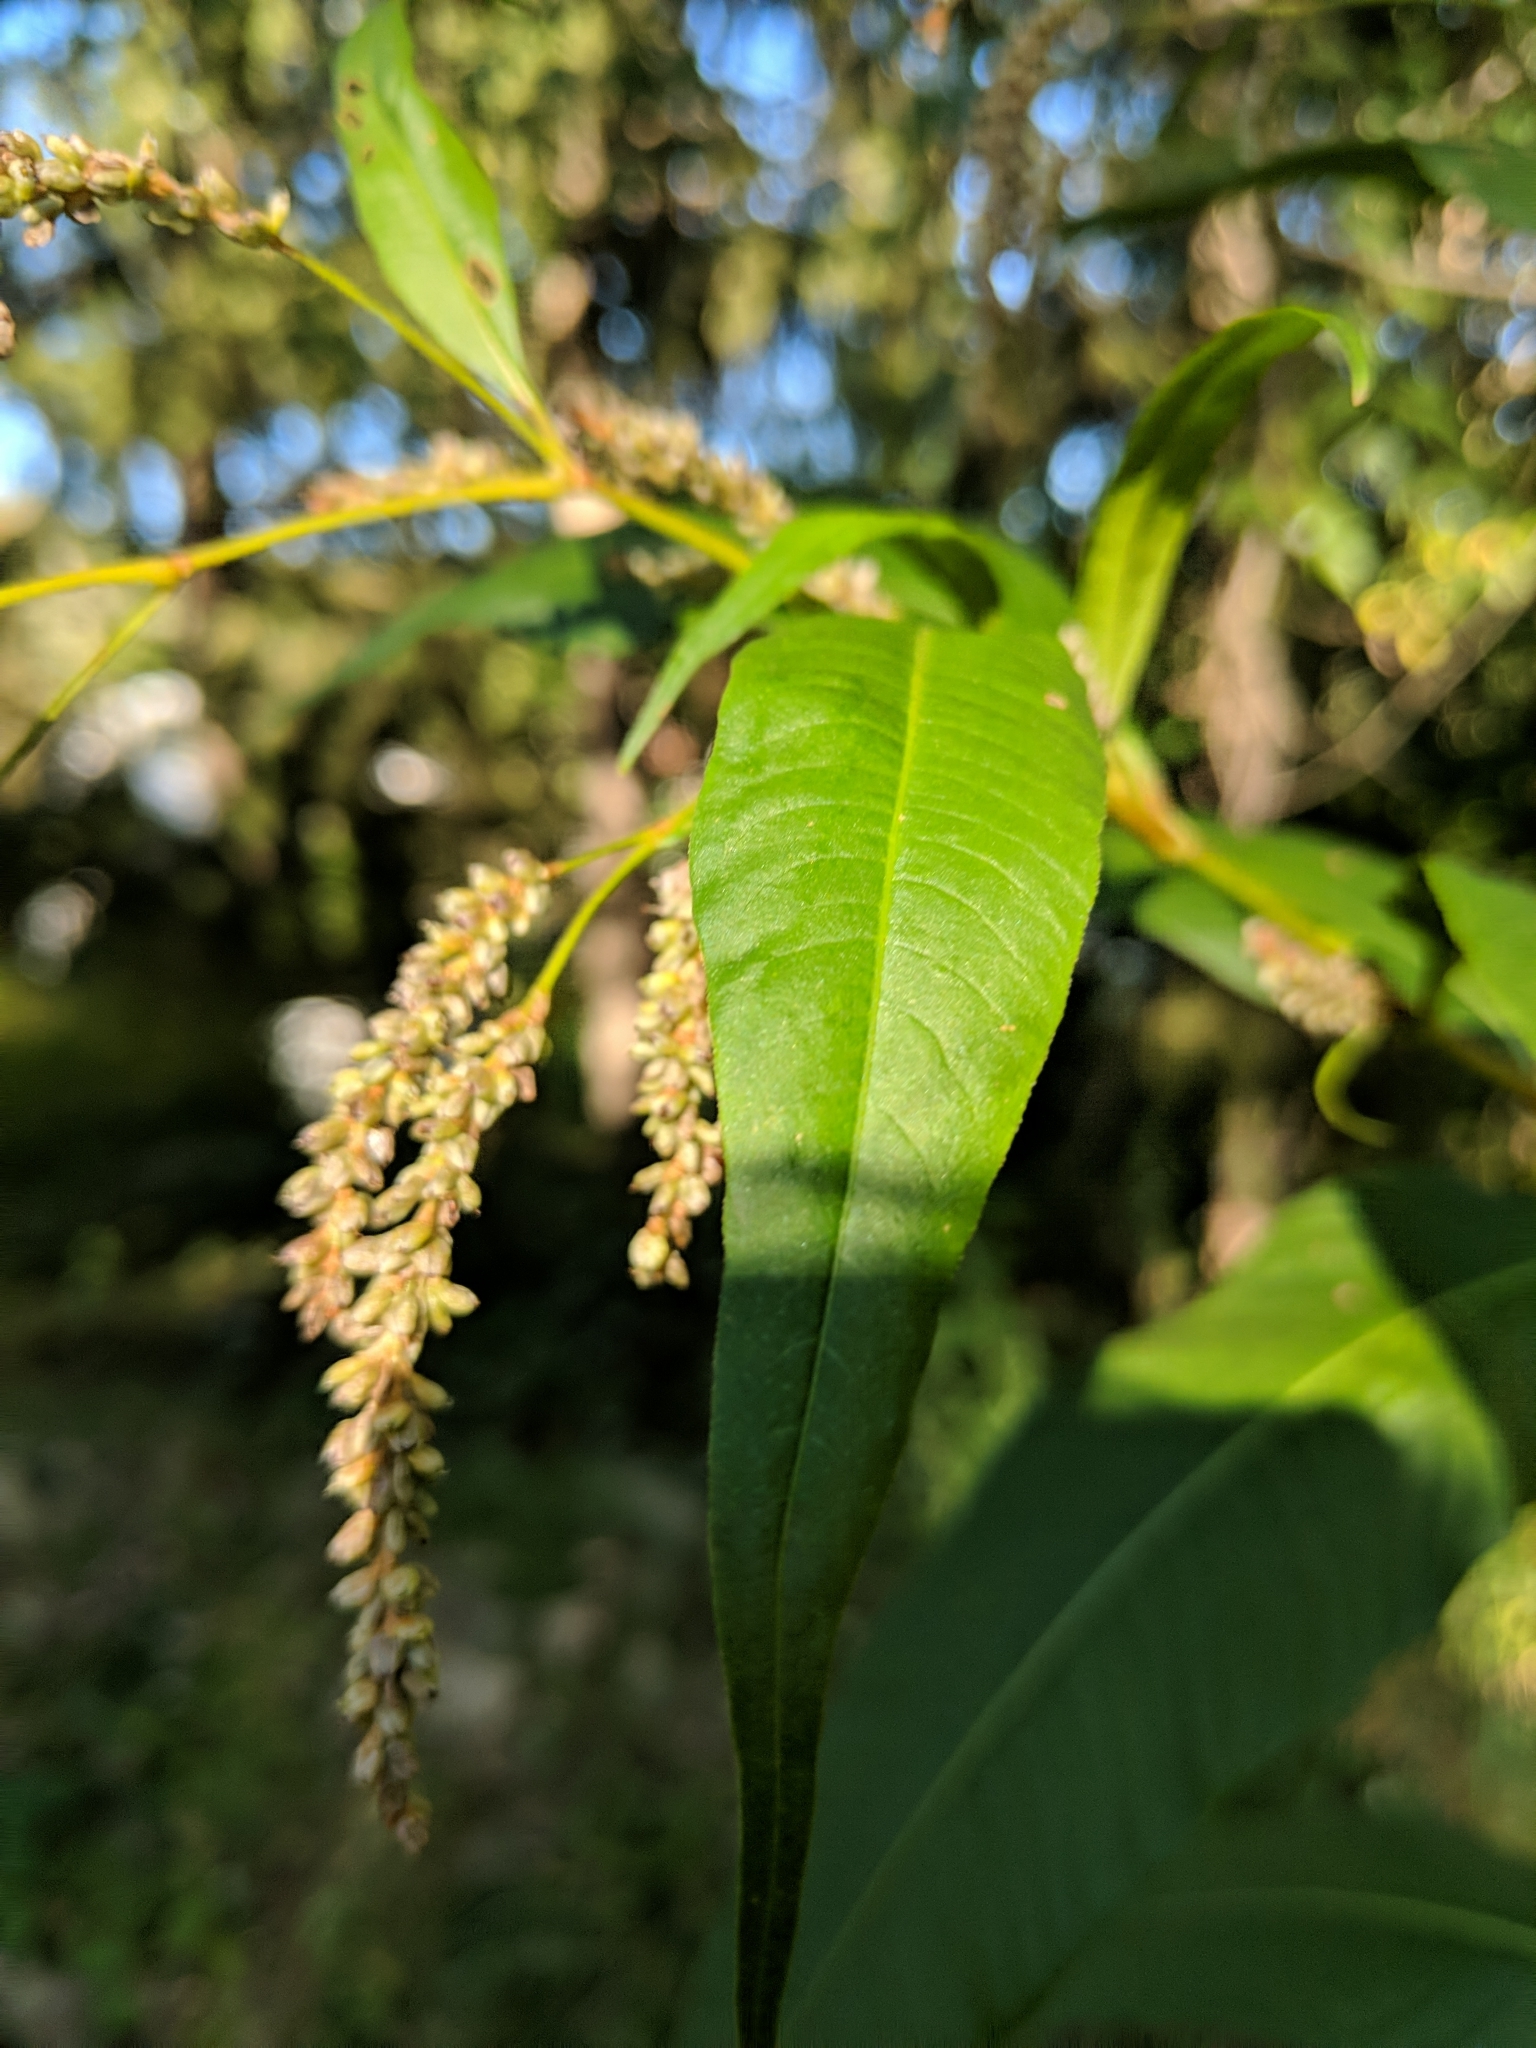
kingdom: Plantae
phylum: Tracheophyta
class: Magnoliopsida
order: Caryophyllales
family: Polygonaceae
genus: Persicaria
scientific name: Persicaria lapathifolia
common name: Curlytop knotweed
